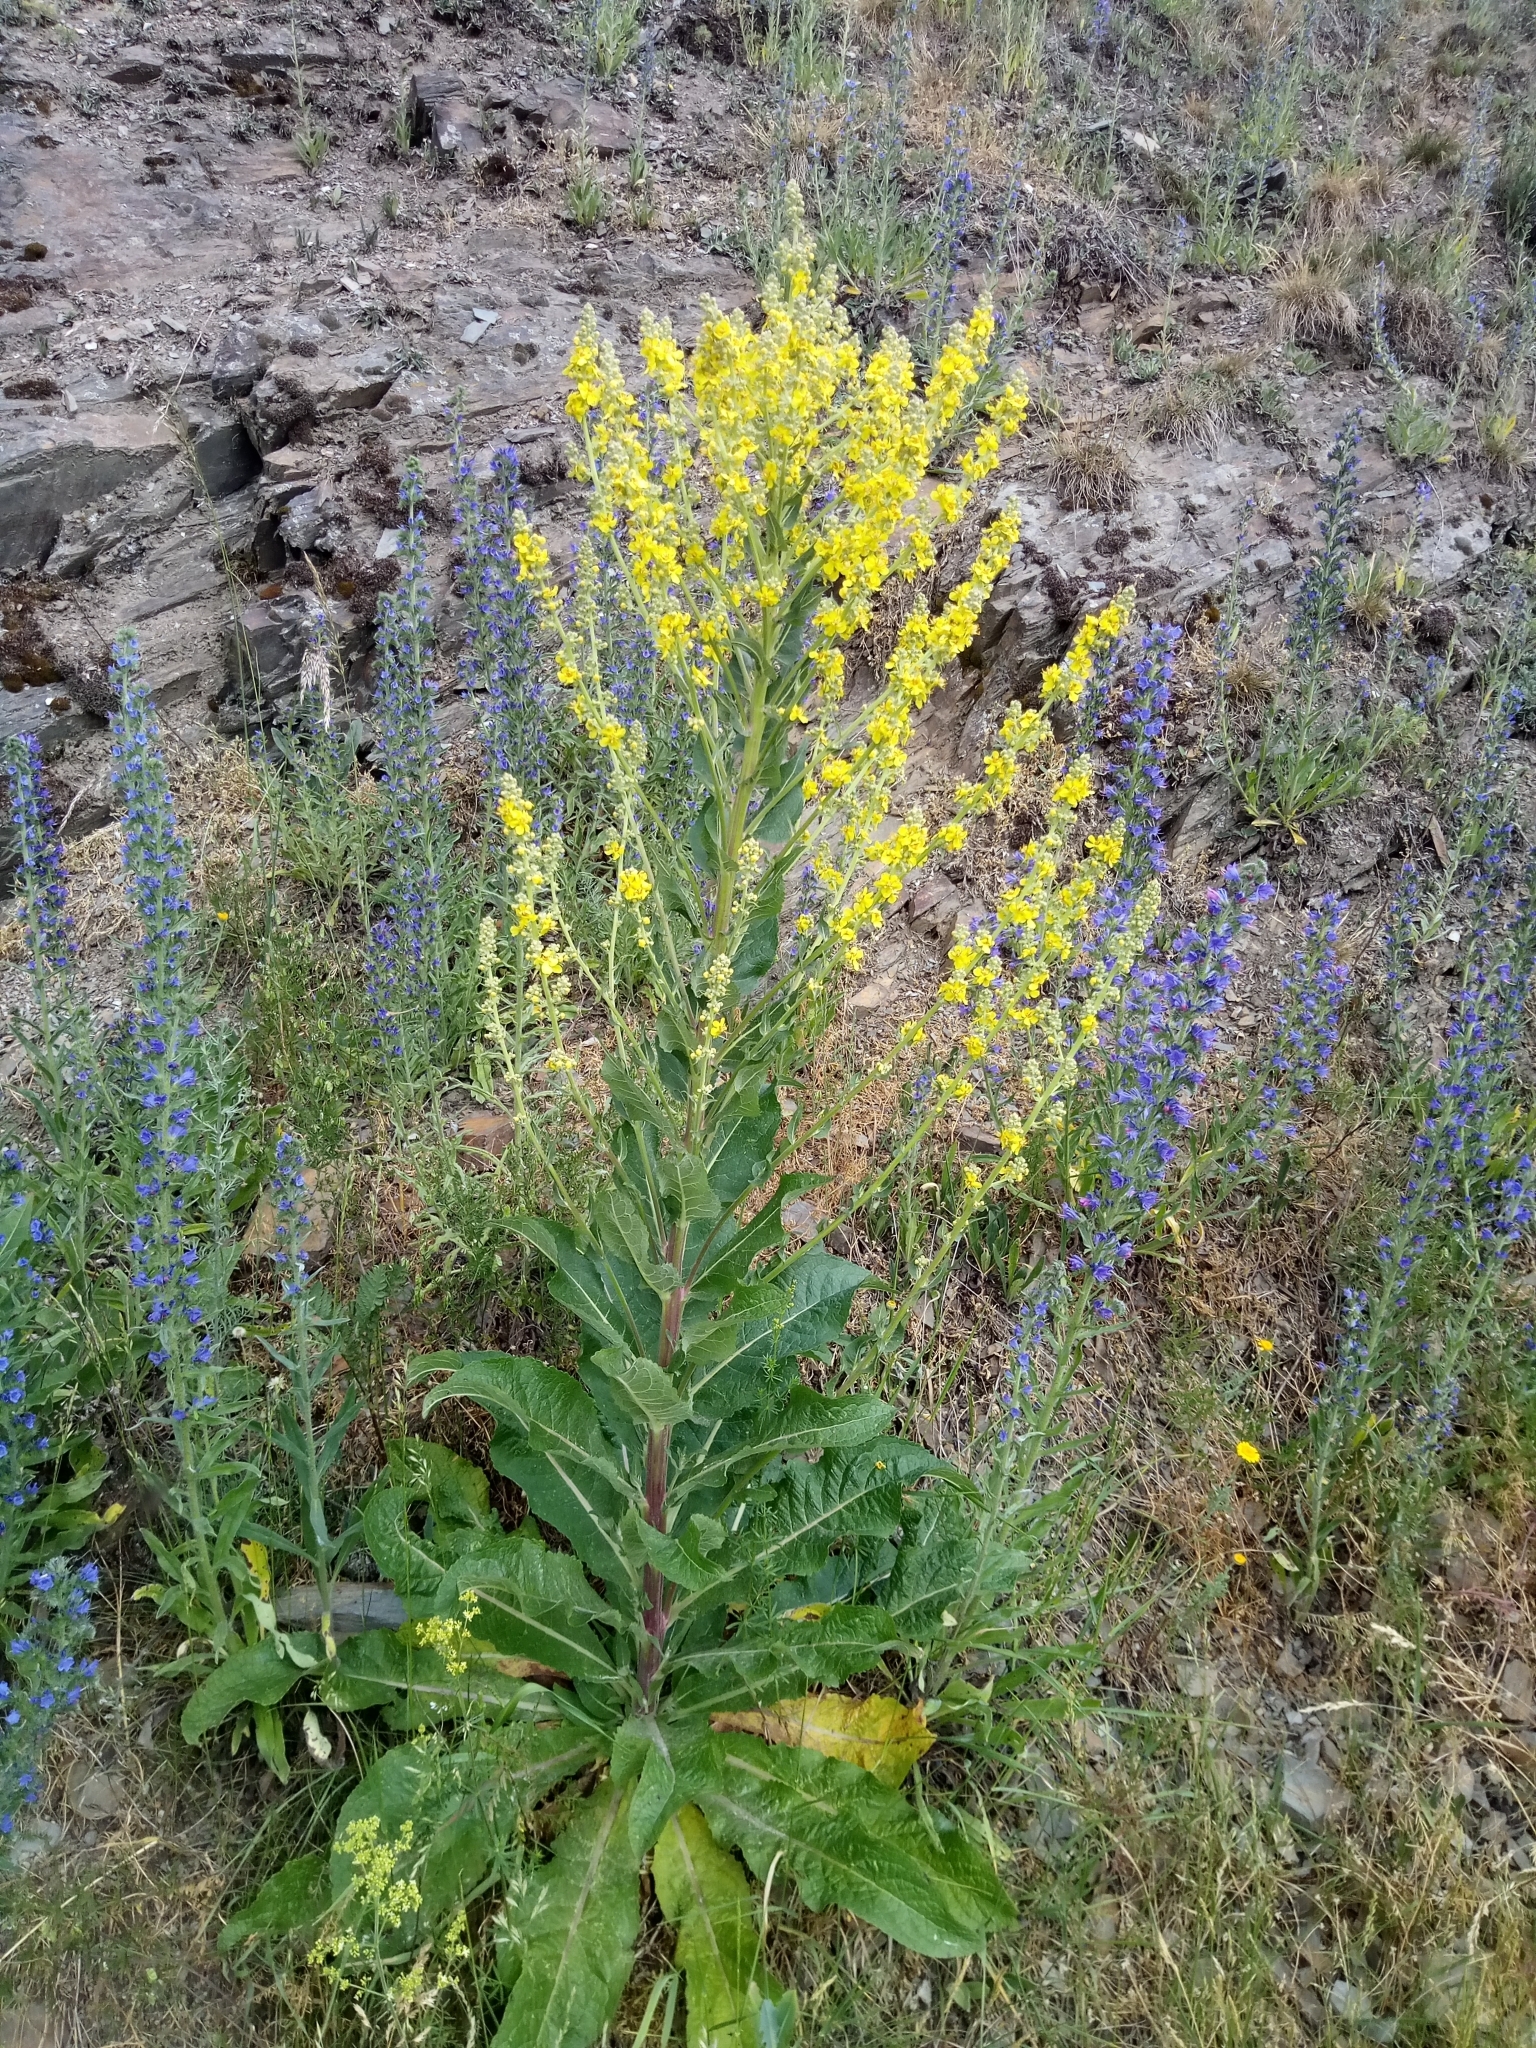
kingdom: Plantae
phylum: Tracheophyta
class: Magnoliopsida
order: Lamiales
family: Scrophulariaceae
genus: Verbascum
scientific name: Verbascum lychnitis
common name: White mullein
